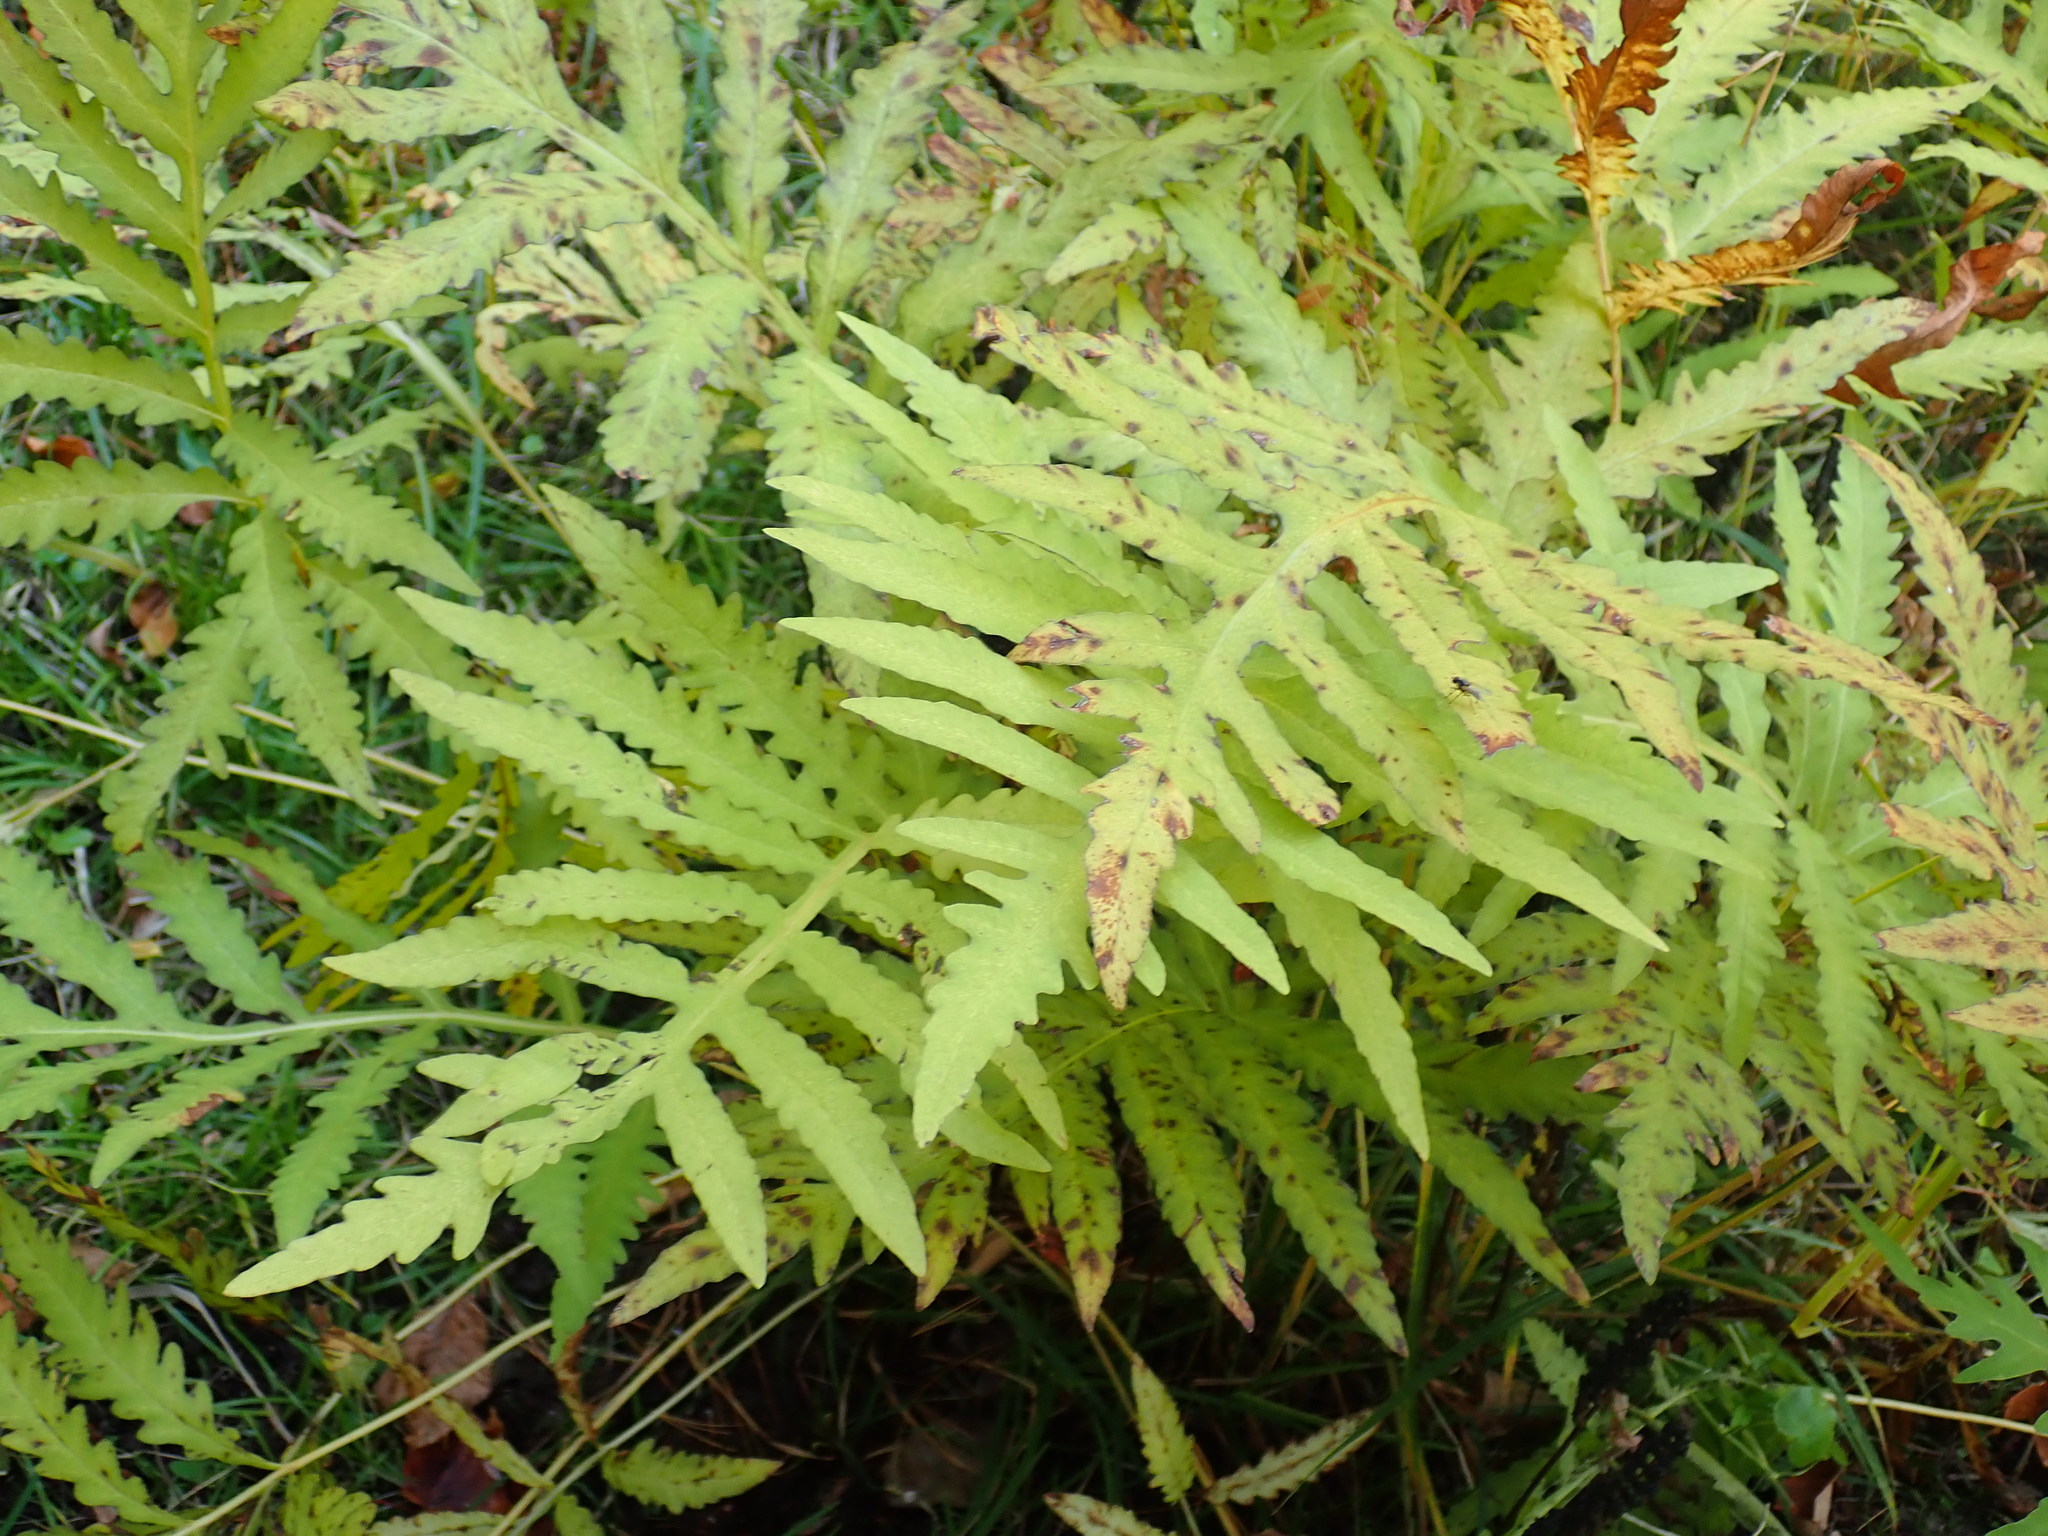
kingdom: Plantae
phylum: Tracheophyta
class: Polypodiopsida
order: Polypodiales
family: Onocleaceae
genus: Onoclea
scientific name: Onoclea sensibilis
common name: Sensitive fern
